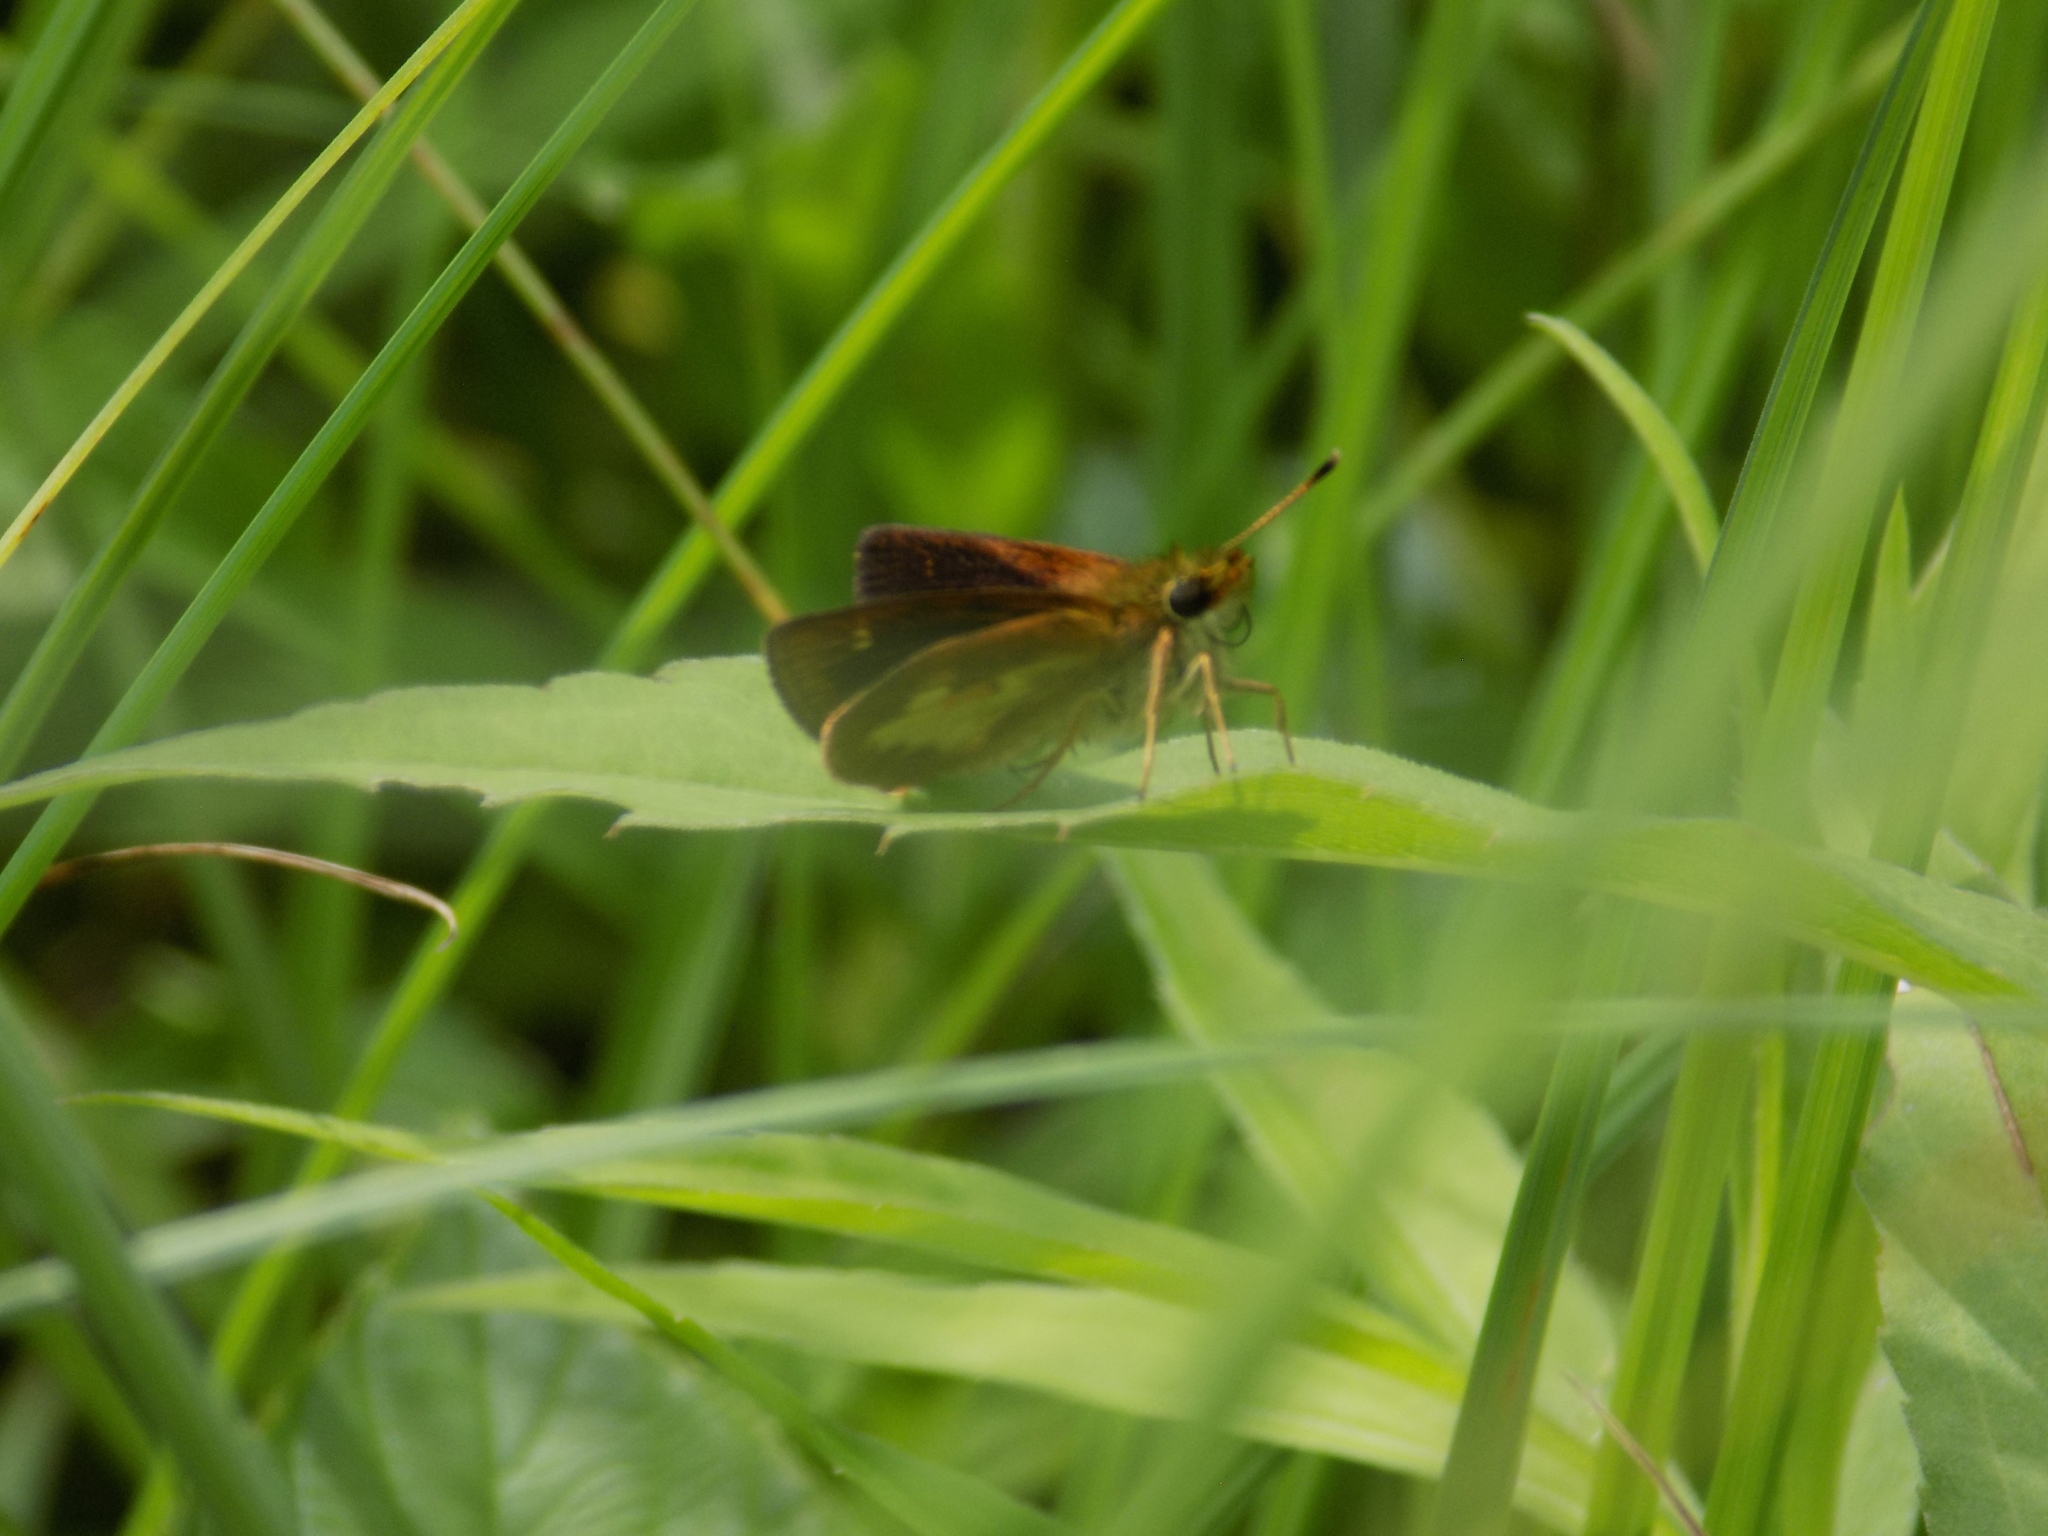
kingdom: Animalia
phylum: Arthropoda
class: Insecta
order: Lepidoptera
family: Hesperiidae
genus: Poanes
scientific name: Poanes massasoit
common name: Mulberrywing
